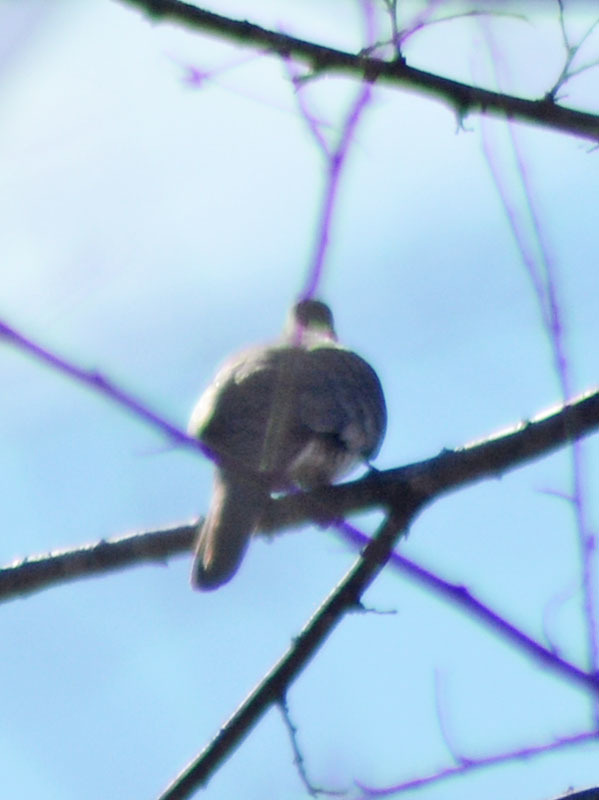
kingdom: Animalia
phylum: Chordata
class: Aves
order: Columbiformes
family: Columbidae
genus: Columbina
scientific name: Columbina inca
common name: Inca dove
